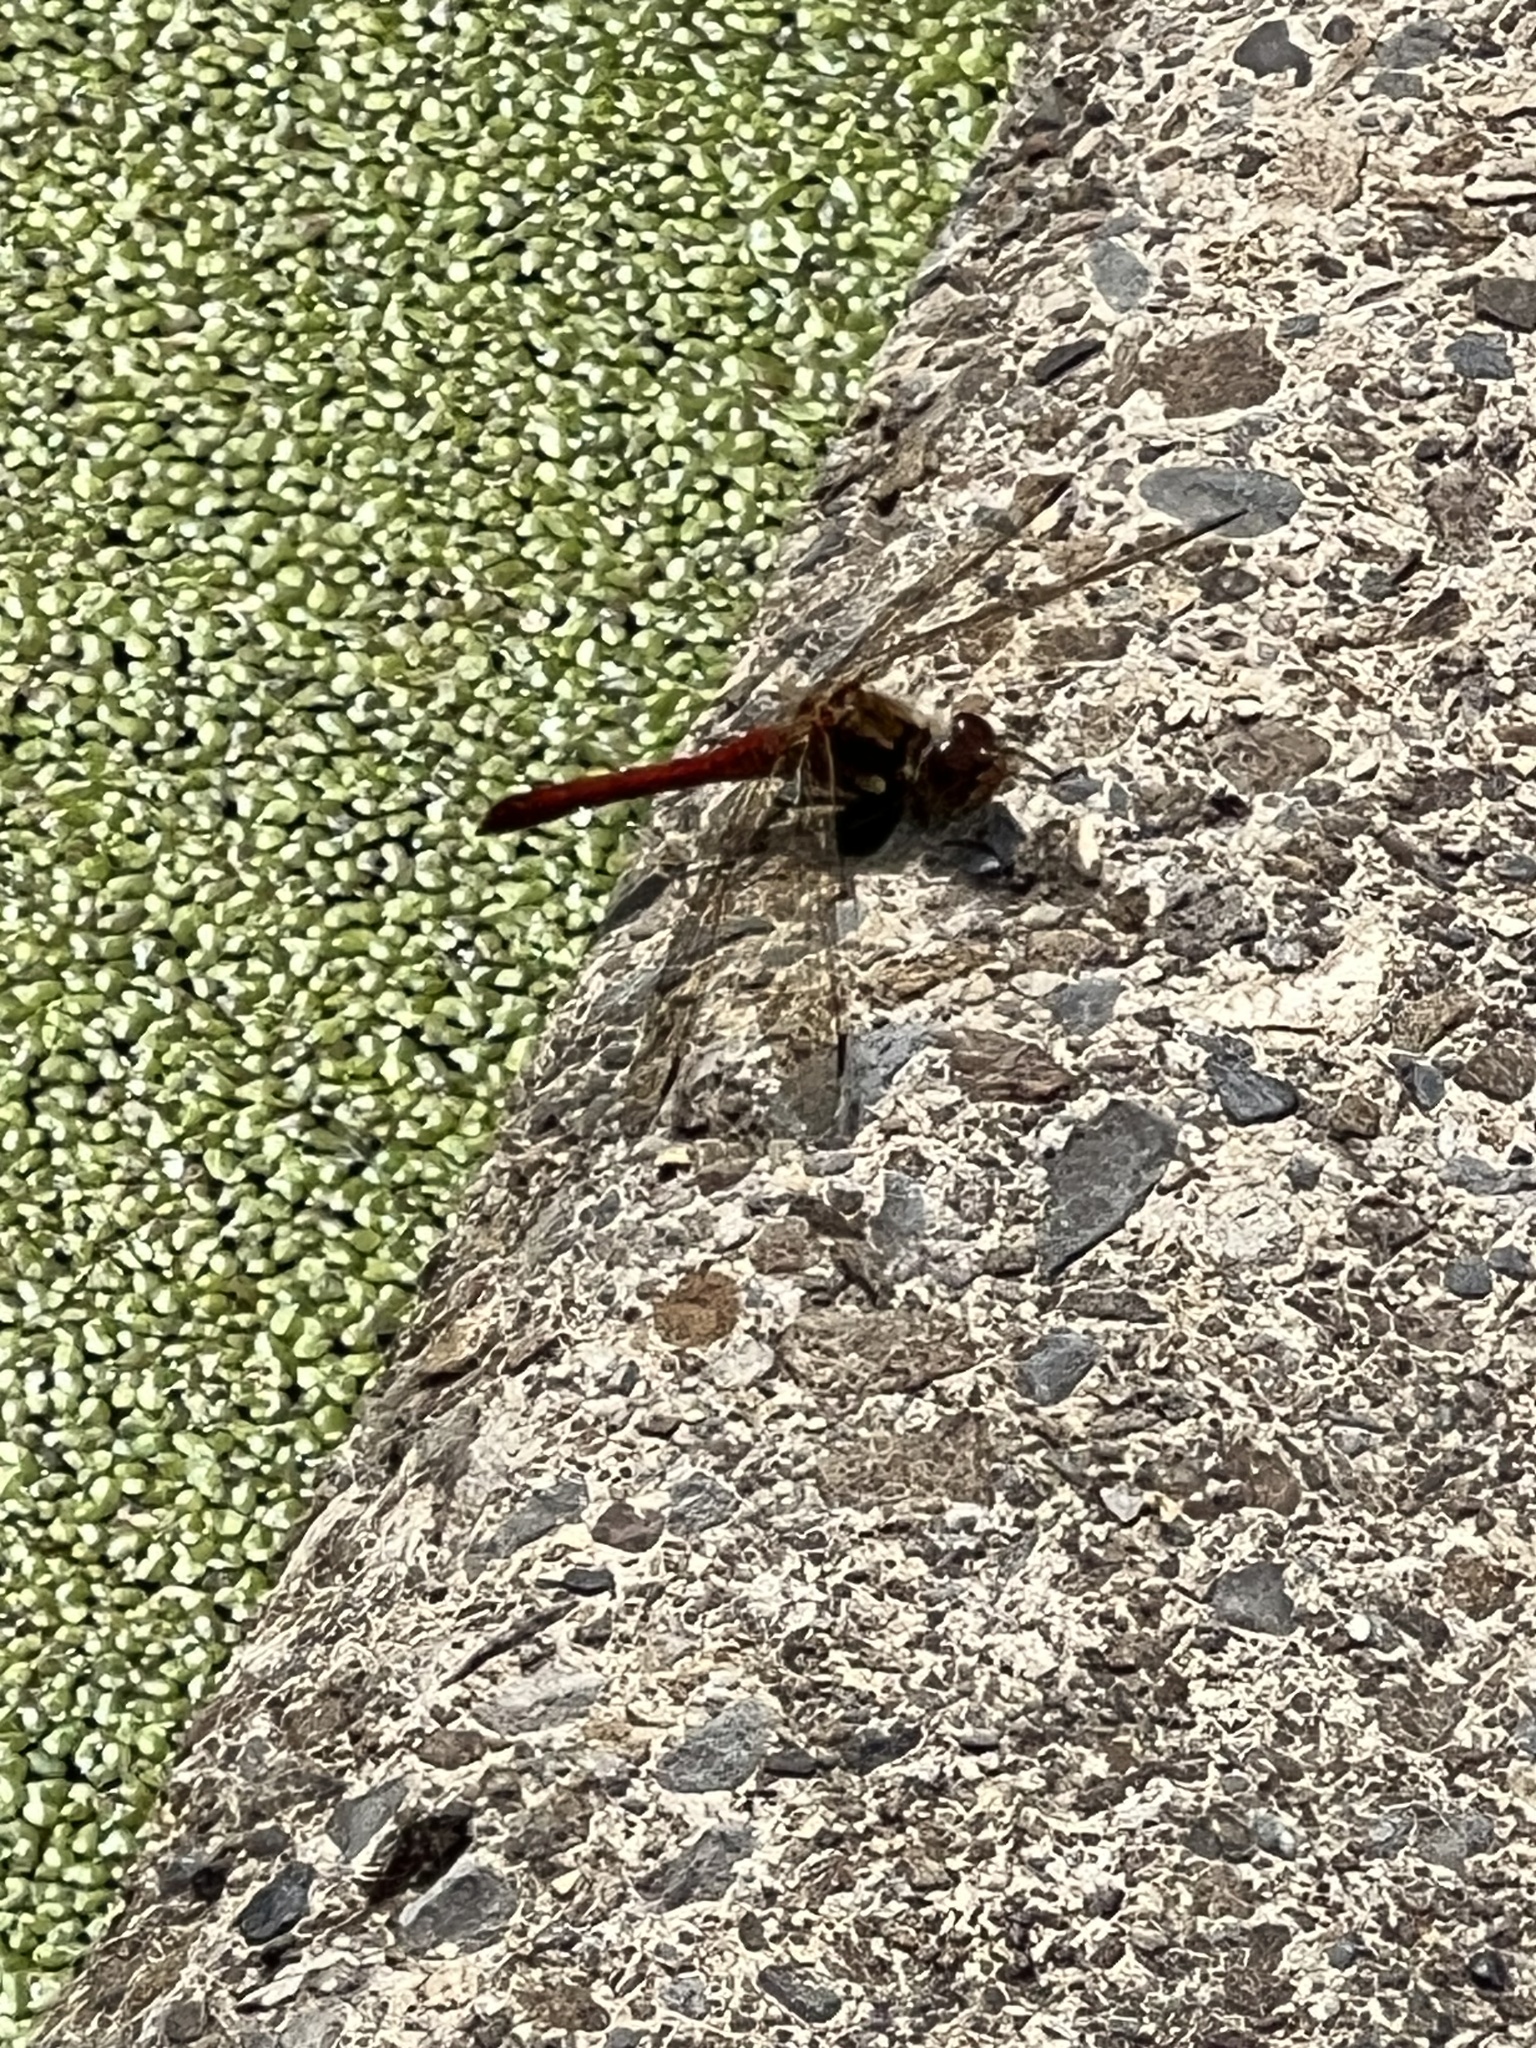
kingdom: Animalia
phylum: Arthropoda
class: Insecta
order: Odonata
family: Libellulidae
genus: Sympetrum
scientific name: Sympetrum striolatum
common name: Common darter
